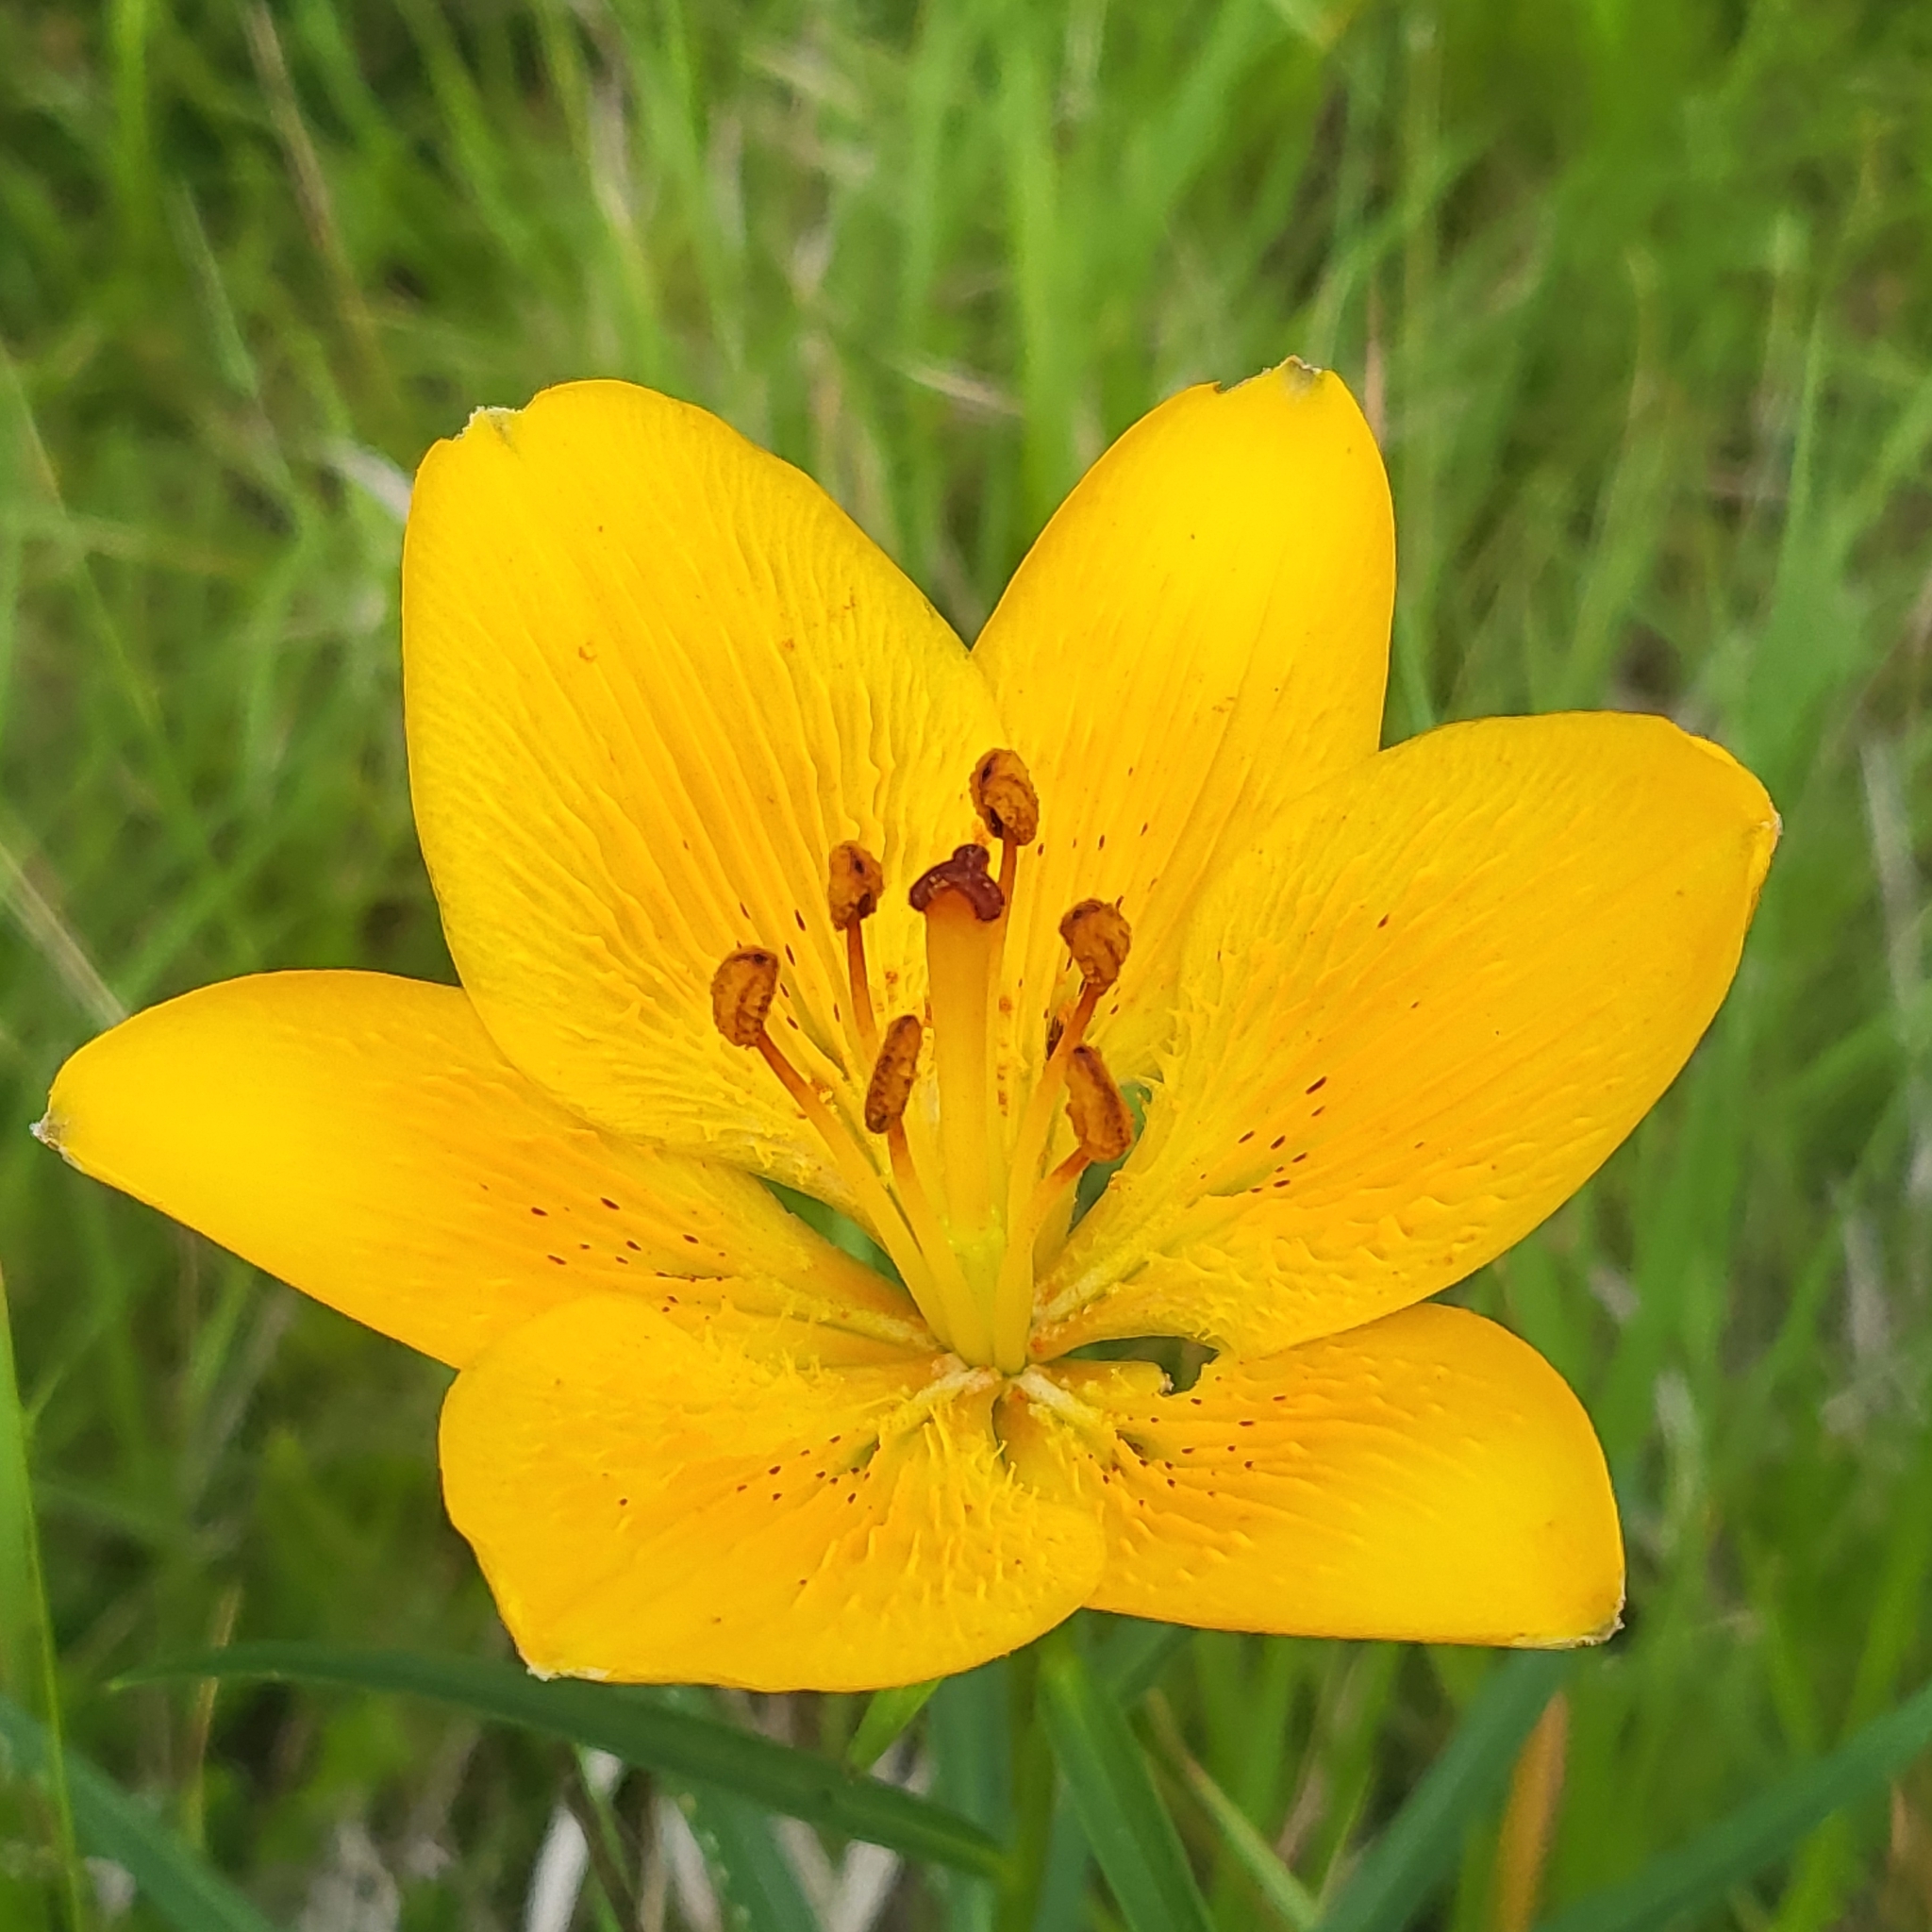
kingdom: Plantae
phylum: Tracheophyta
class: Liliopsida
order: Liliales
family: Liliaceae
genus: Lilium
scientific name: Lilium bulbiferum
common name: Orange lily
